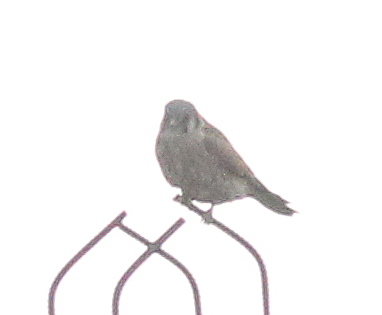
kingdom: Animalia
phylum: Chordata
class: Aves
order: Falconiformes
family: Falconidae
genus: Falco
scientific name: Falco sparverius
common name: American kestrel
